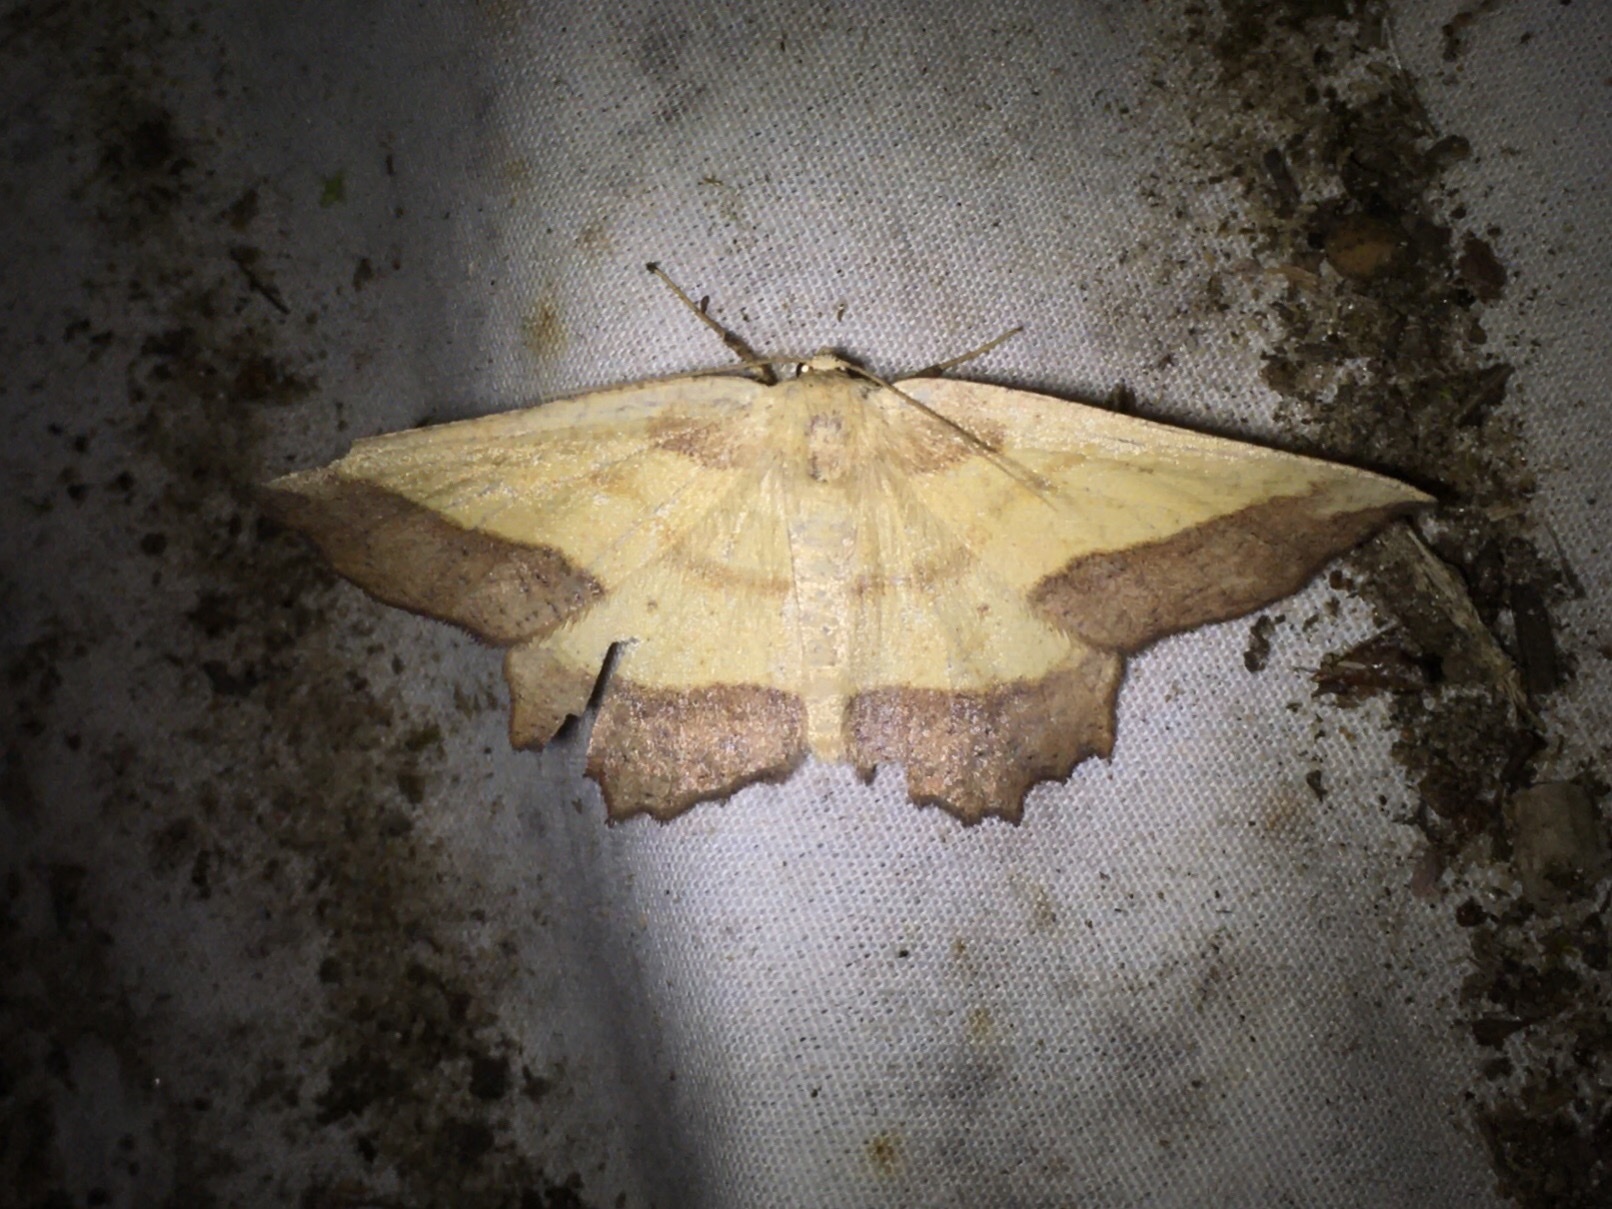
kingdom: Animalia
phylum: Arthropoda
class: Insecta
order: Lepidoptera
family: Geometridae
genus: Euchlaena
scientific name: Euchlaena serrata
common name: Saw wing
